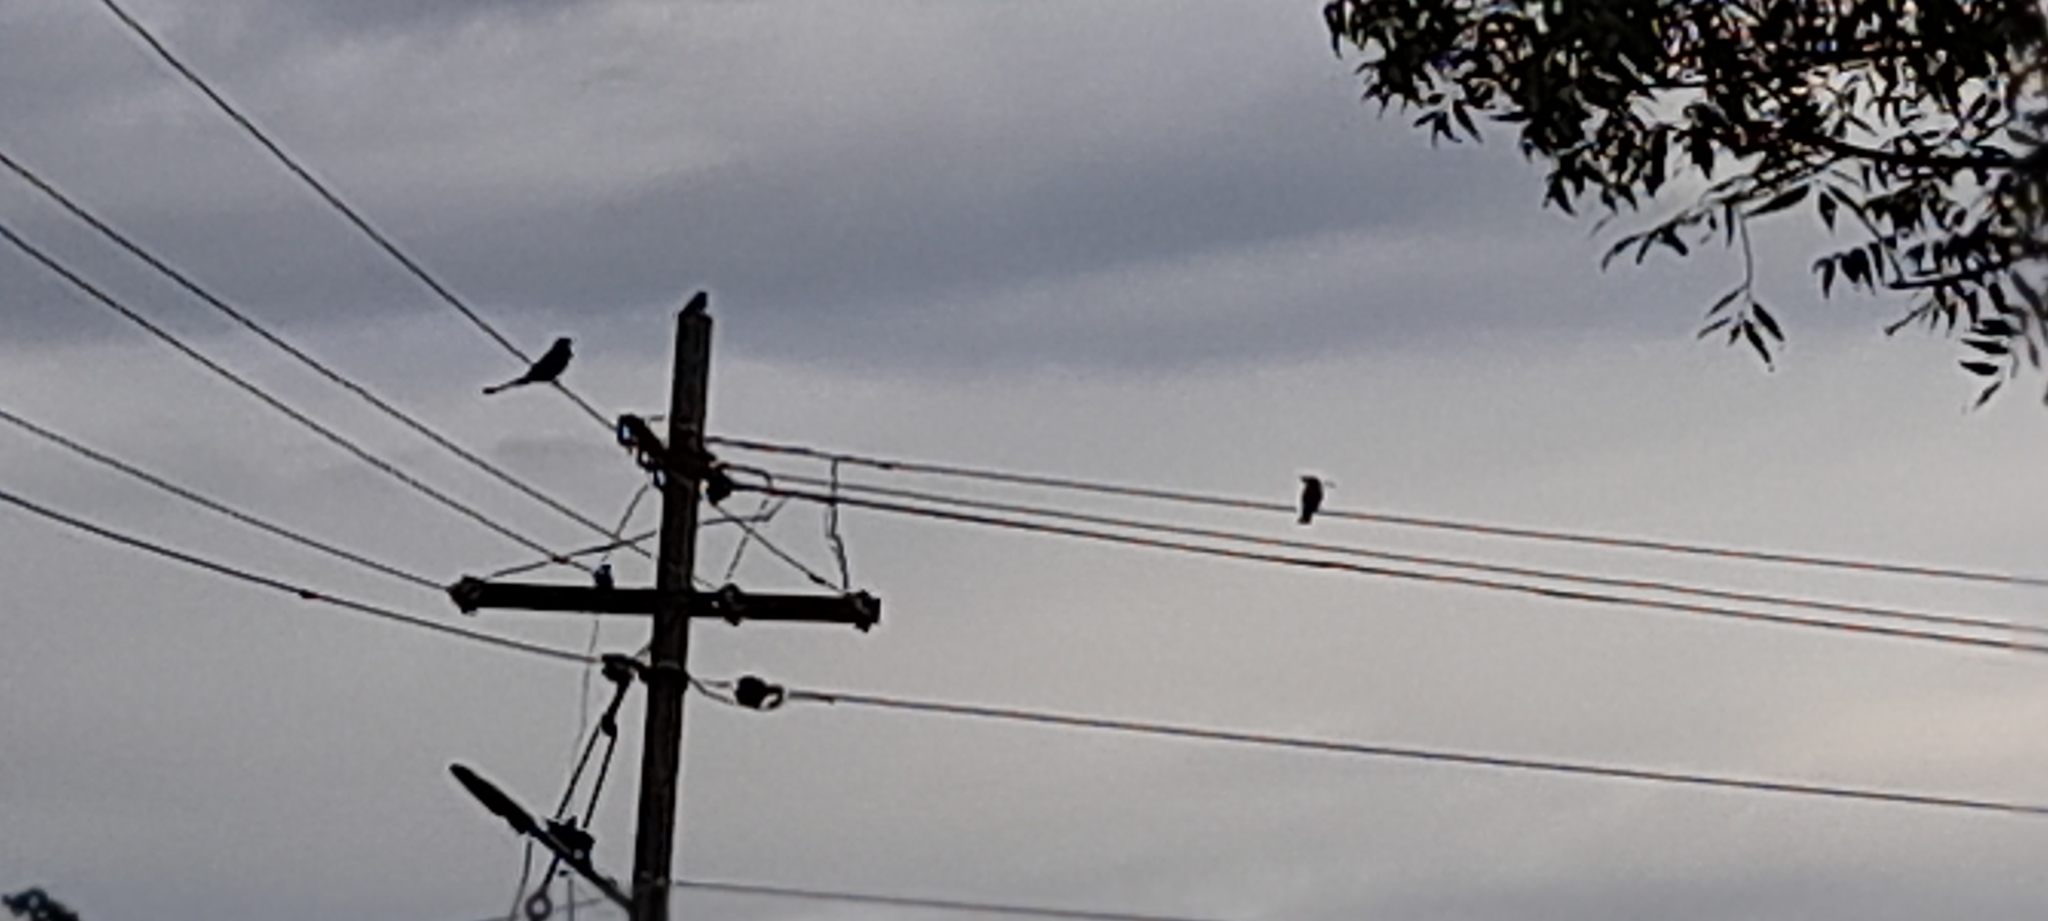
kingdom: Animalia
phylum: Chordata
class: Aves
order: Passeriformes
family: Dicruridae
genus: Dicrurus
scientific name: Dicrurus macrocercus
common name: Black drongo
